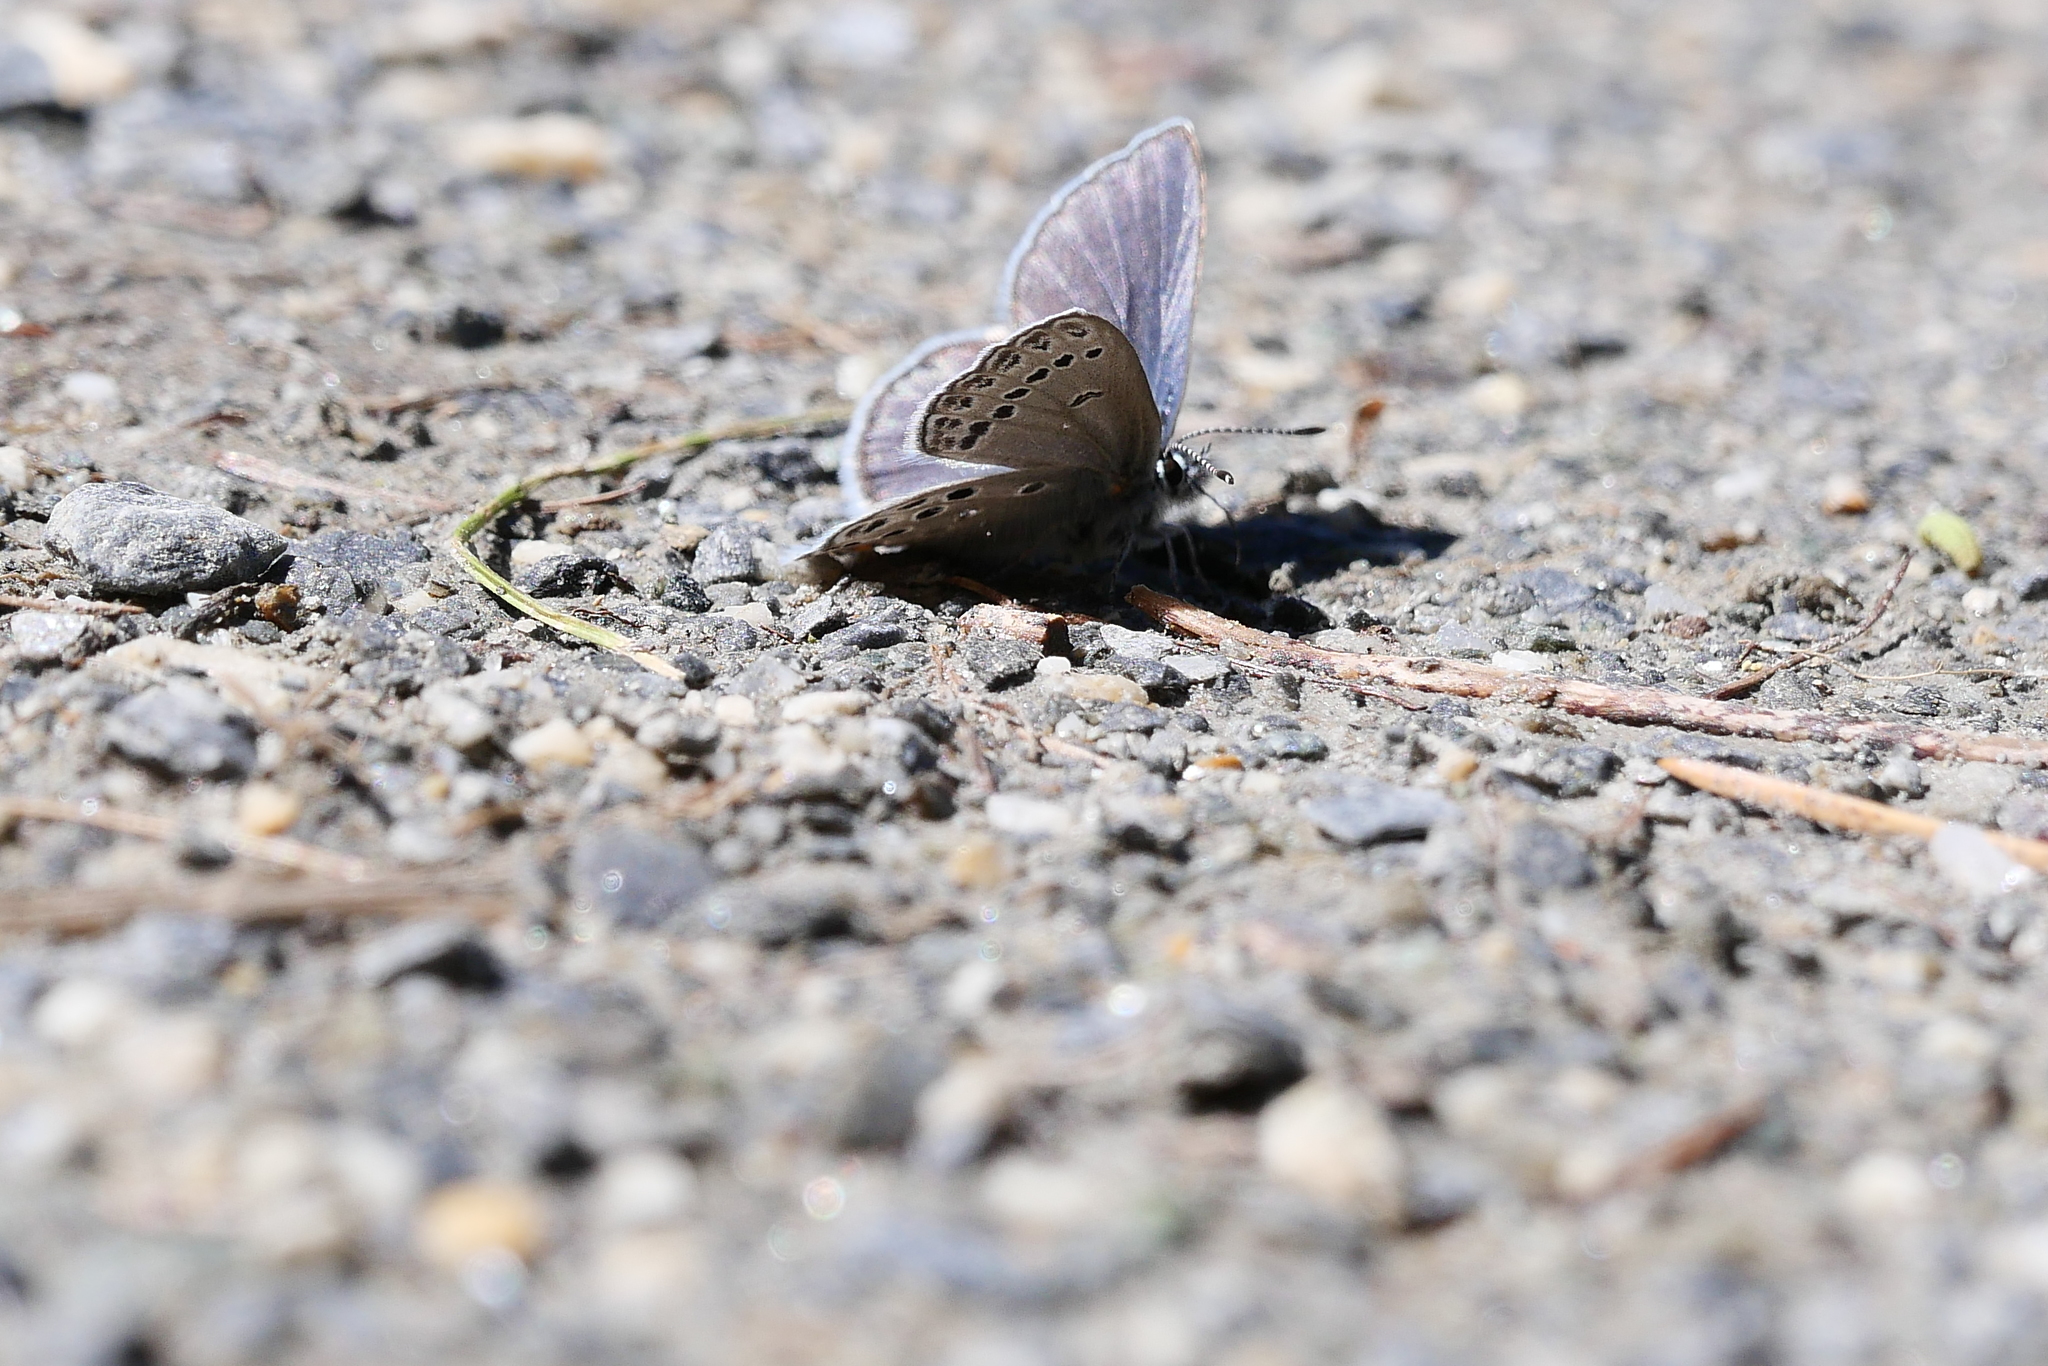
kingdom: Animalia
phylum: Arthropoda
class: Insecta
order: Lepidoptera
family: Lycaenidae
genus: Vacciniina
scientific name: Vacciniina optilete
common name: Cranberry blue
